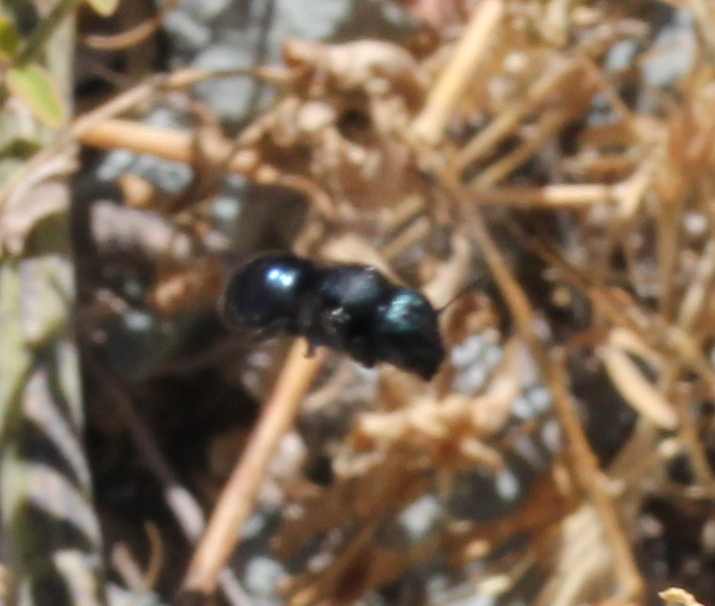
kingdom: Animalia
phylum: Arthropoda
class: Insecta
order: Hymenoptera
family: Megachilidae
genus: Osmia
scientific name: Osmia
